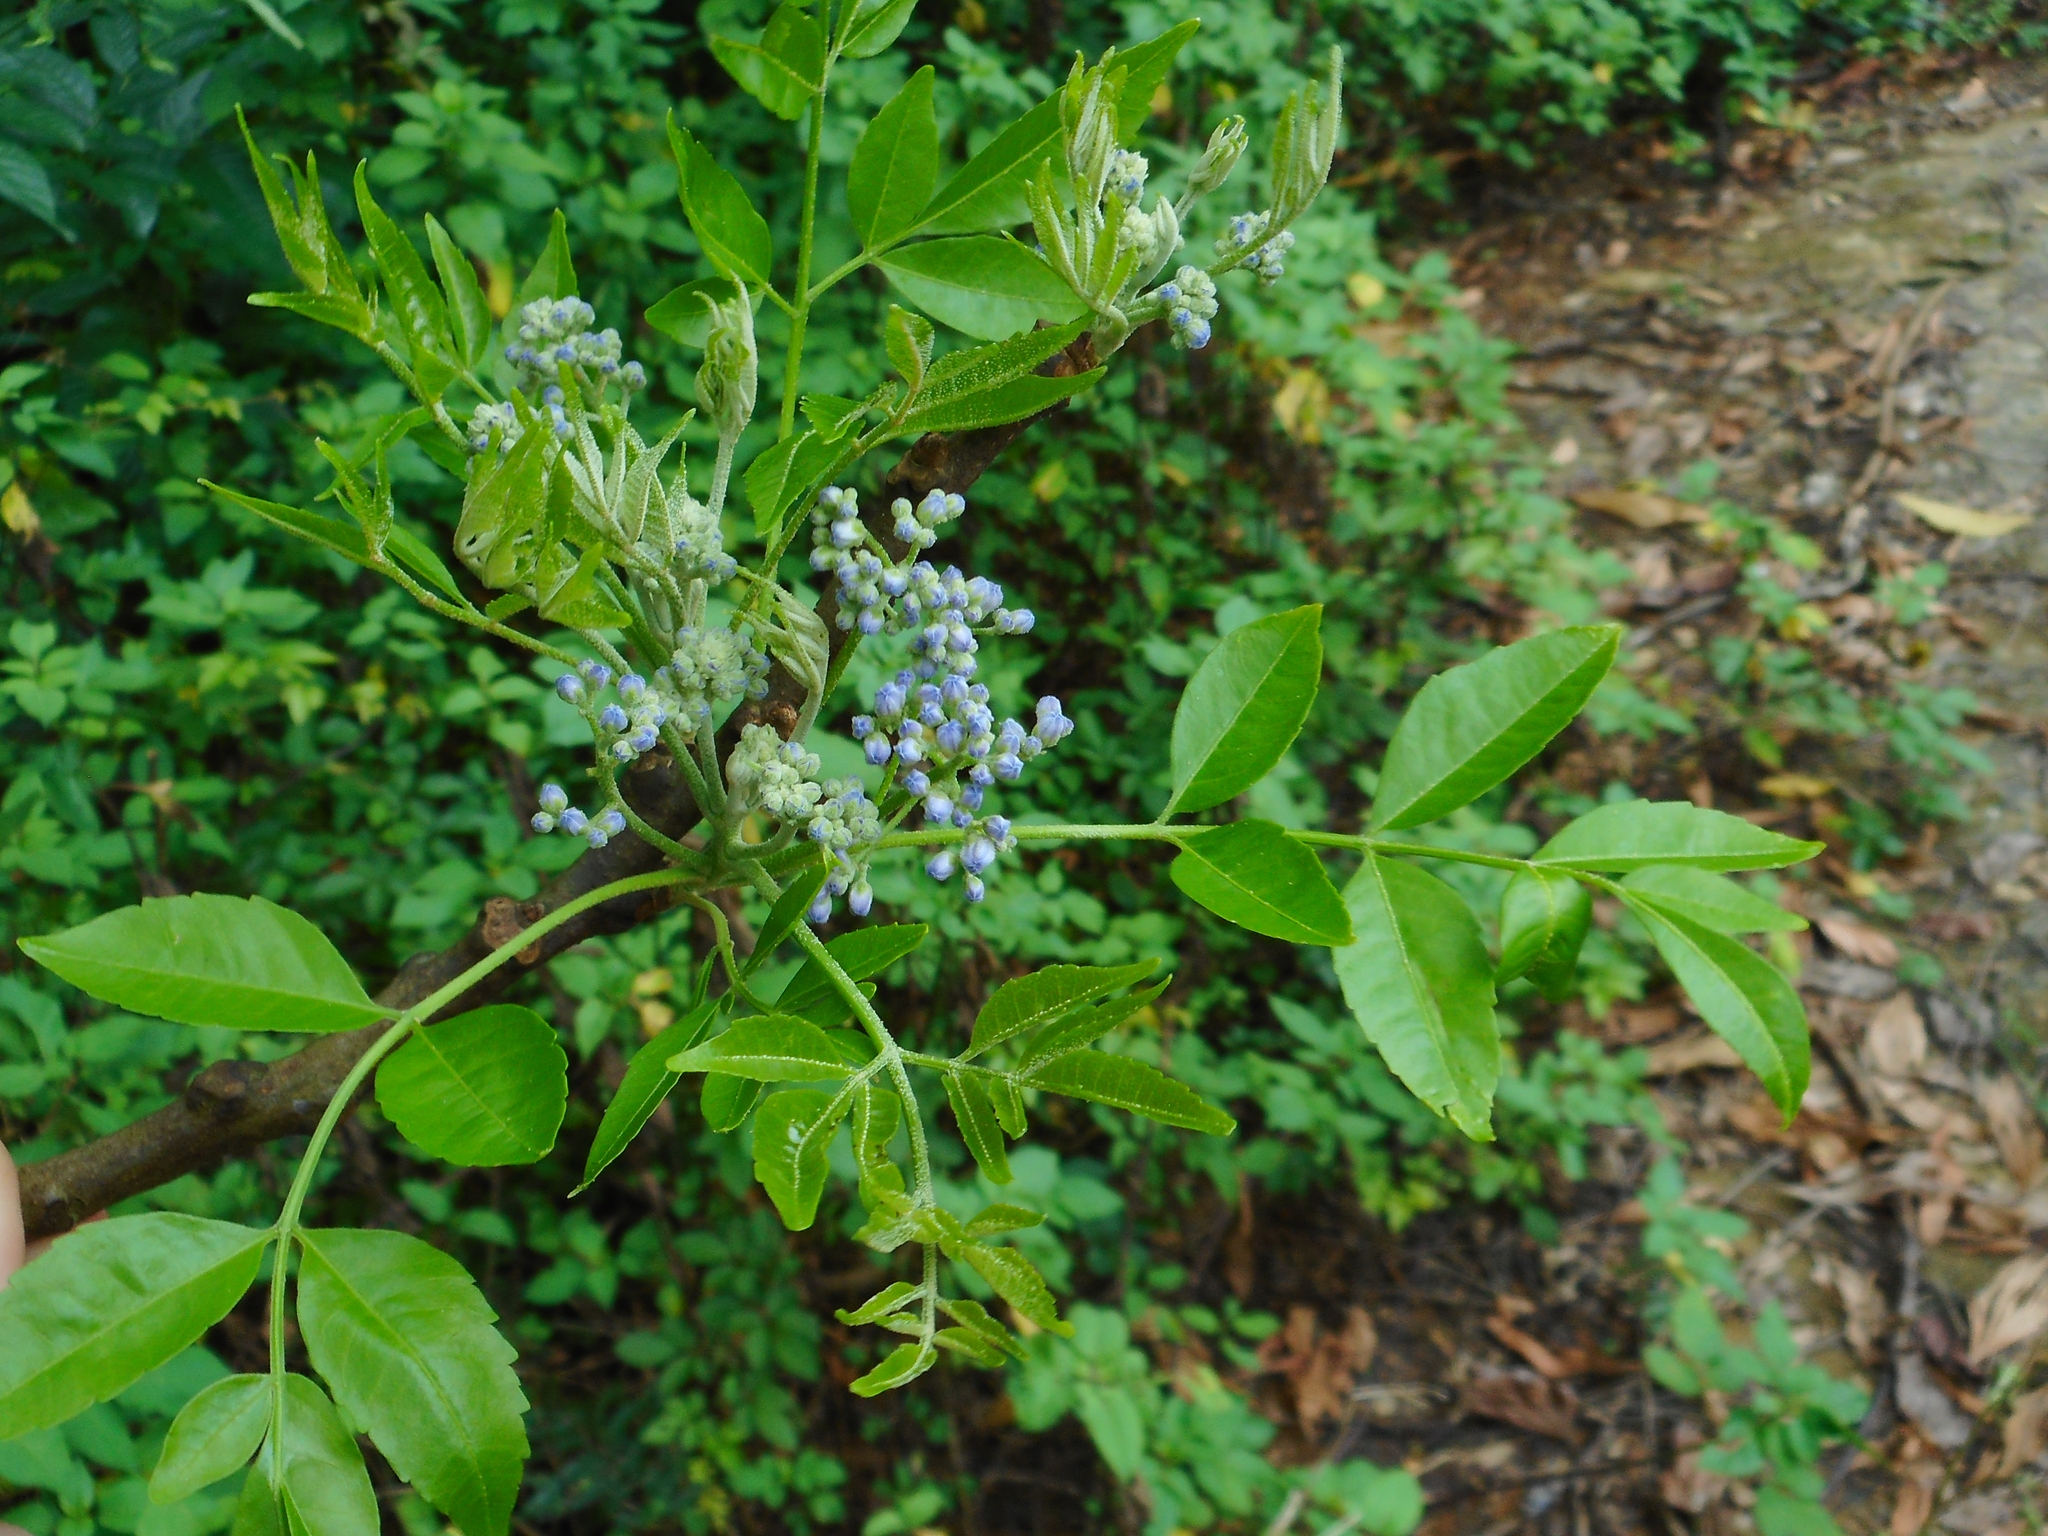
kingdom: Plantae
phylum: Tracheophyta
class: Magnoliopsida
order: Sapindales
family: Meliaceae
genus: Melia
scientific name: Melia azedarach
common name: Chinaberrytree
